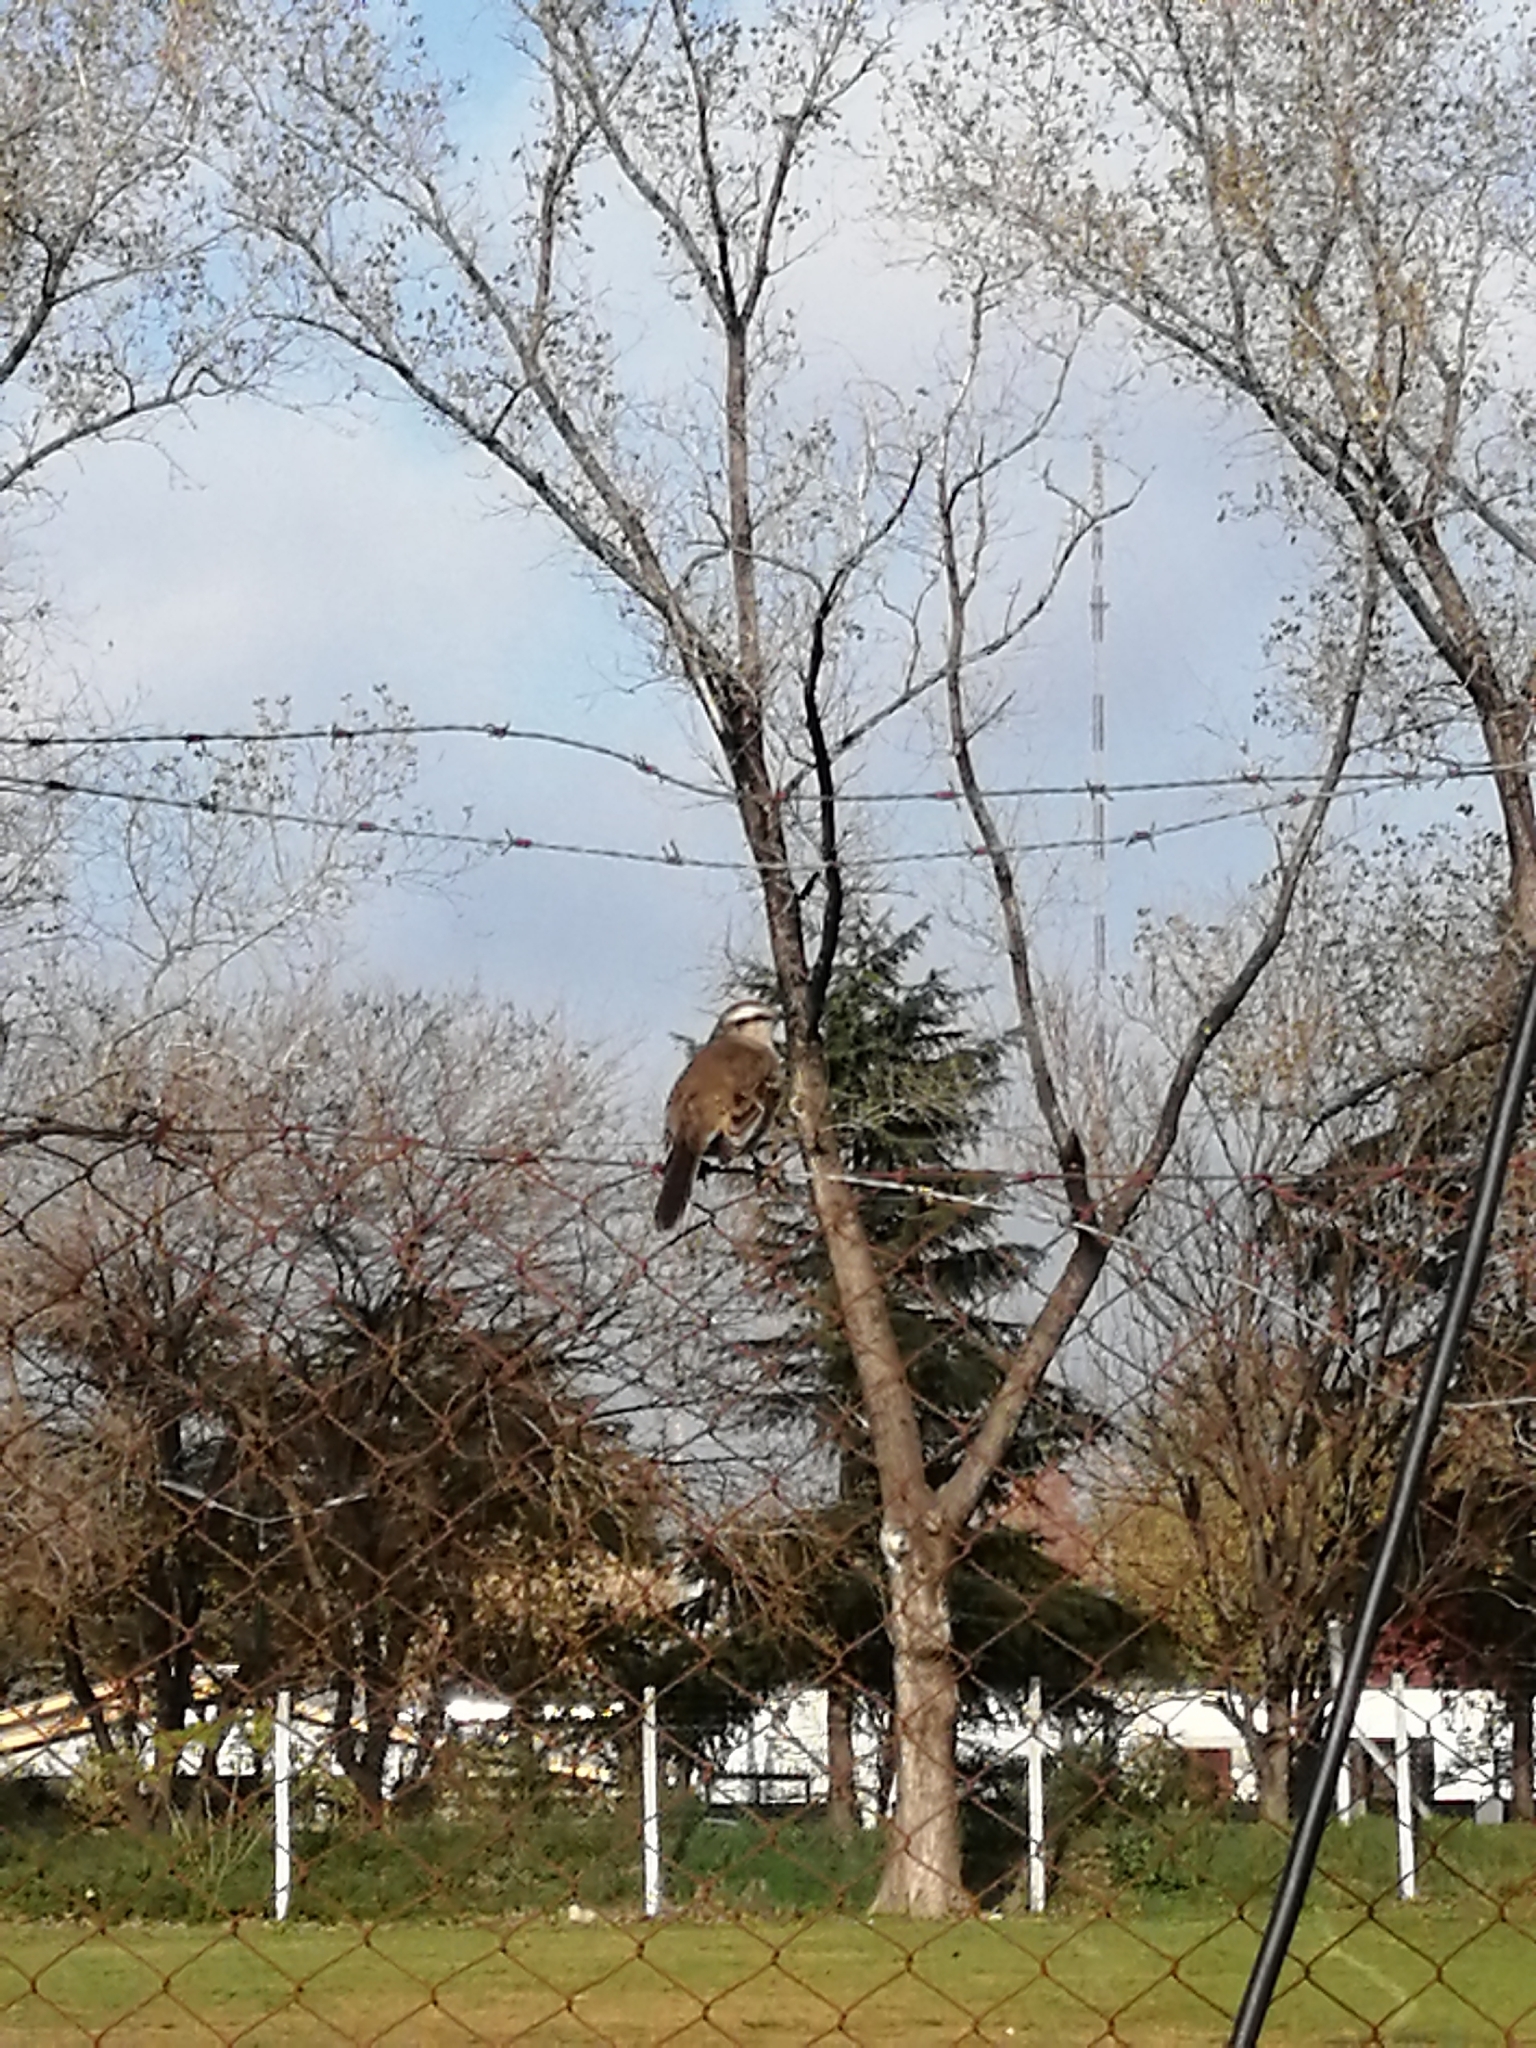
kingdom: Animalia
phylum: Chordata
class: Aves
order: Passeriformes
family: Mimidae
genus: Mimus
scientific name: Mimus saturninus
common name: Chalk-browed mockingbird
